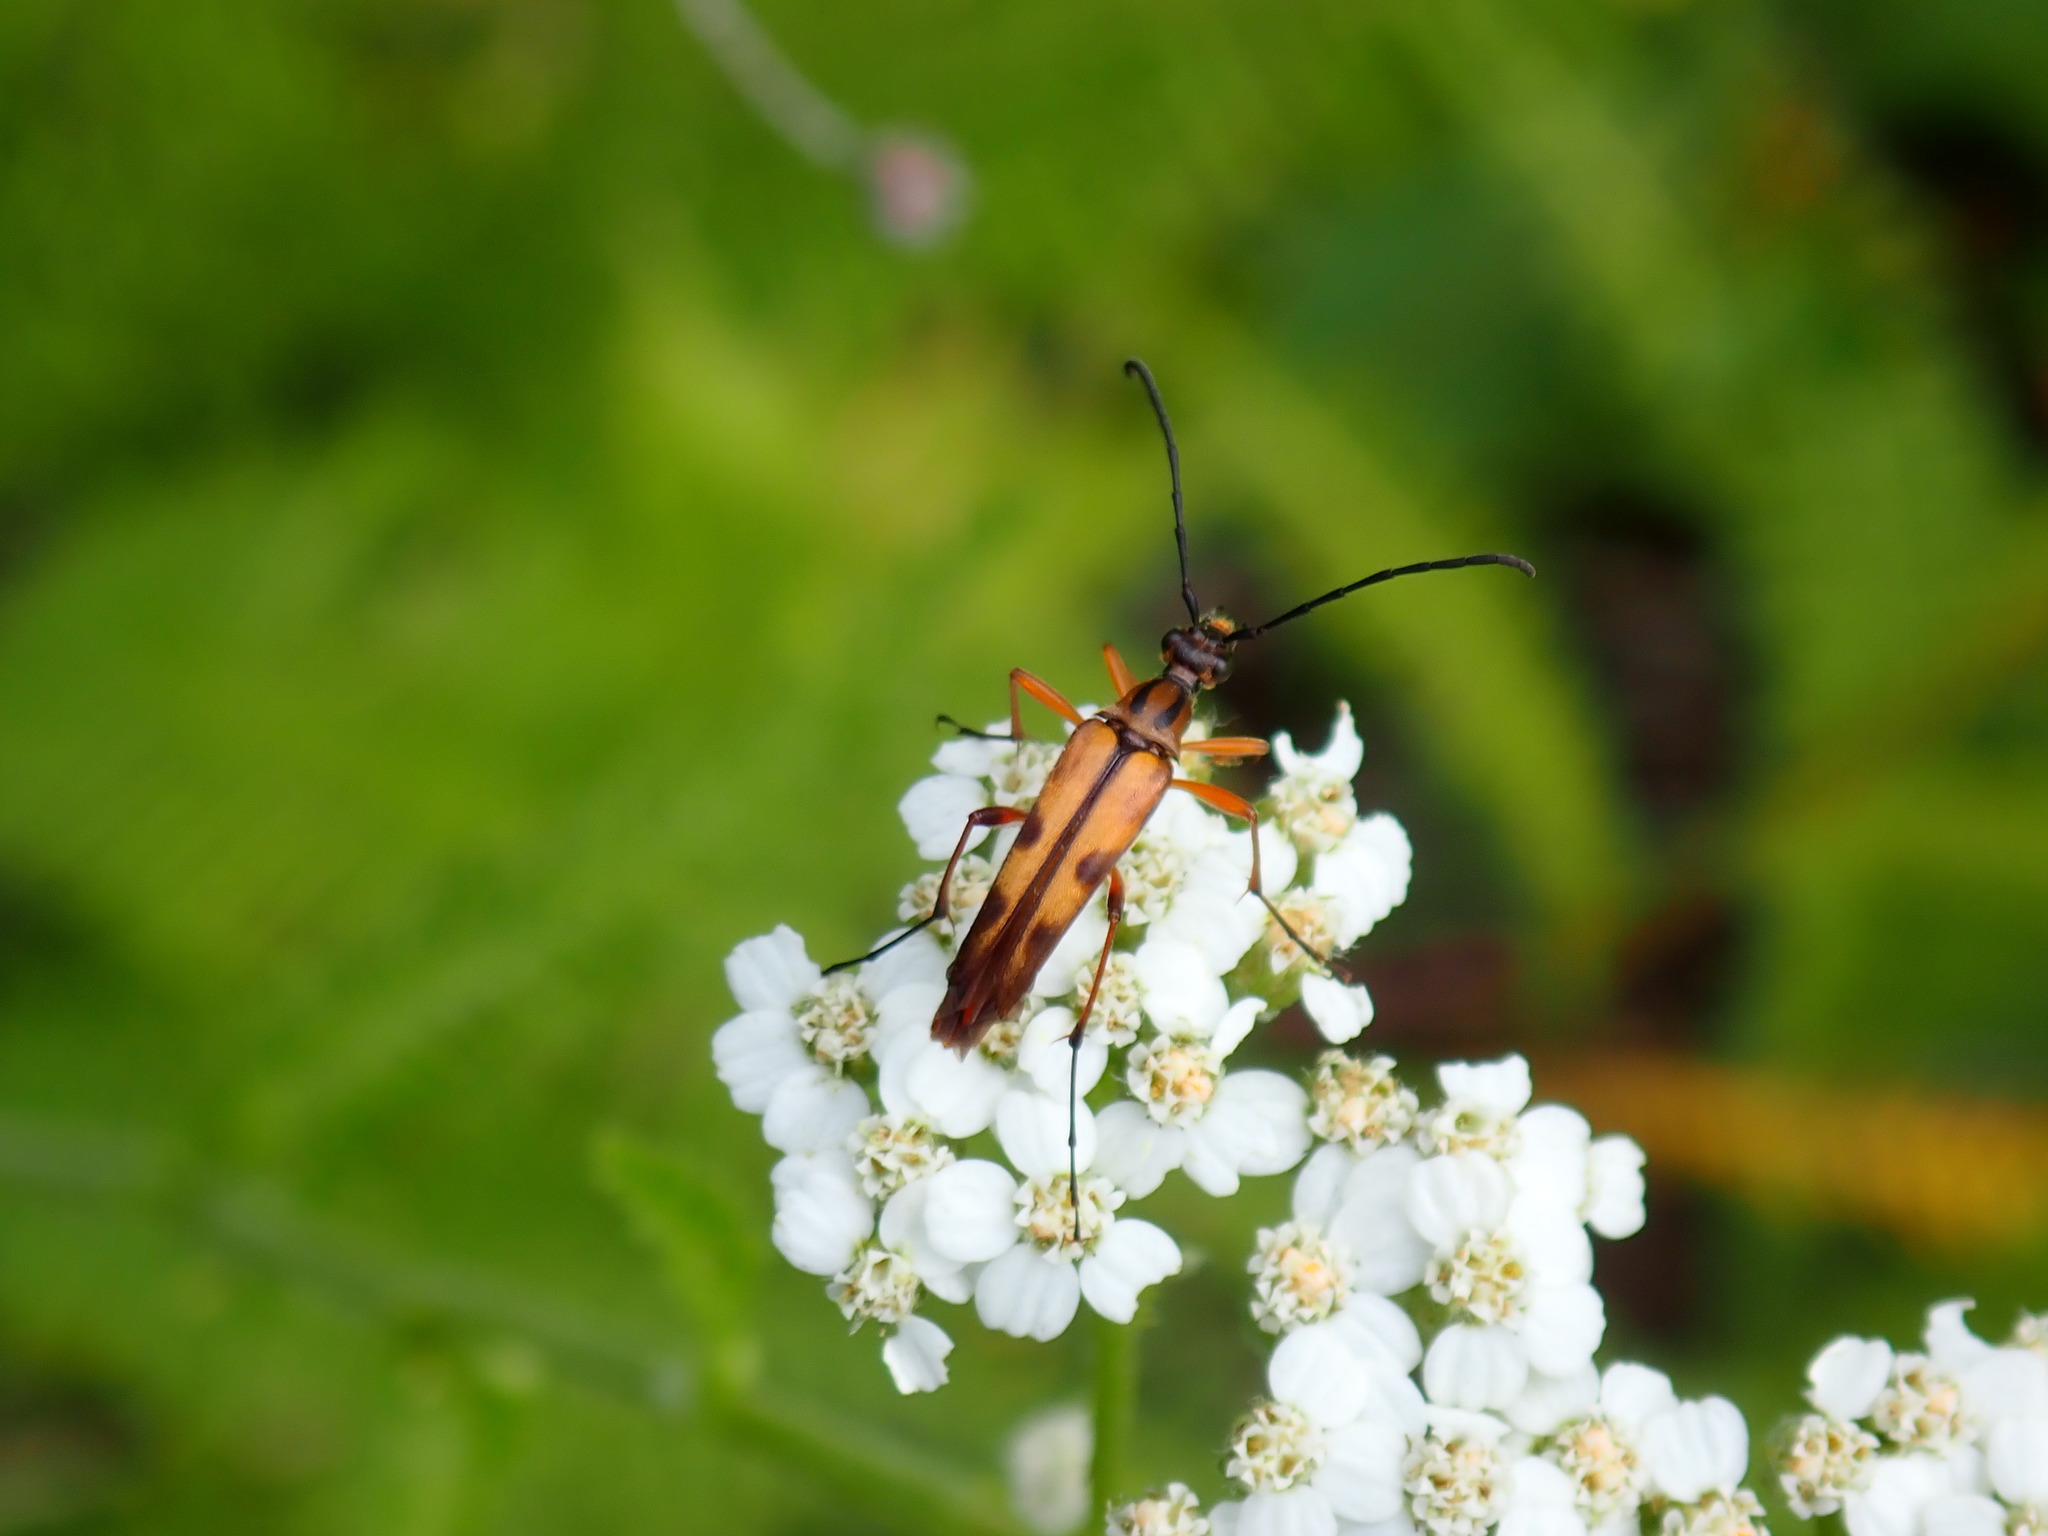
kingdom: Animalia
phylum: Arthropoda
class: Insecta
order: Coleoptera
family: Cerambycidae
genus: Strangalia
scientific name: Strangalia famelica
